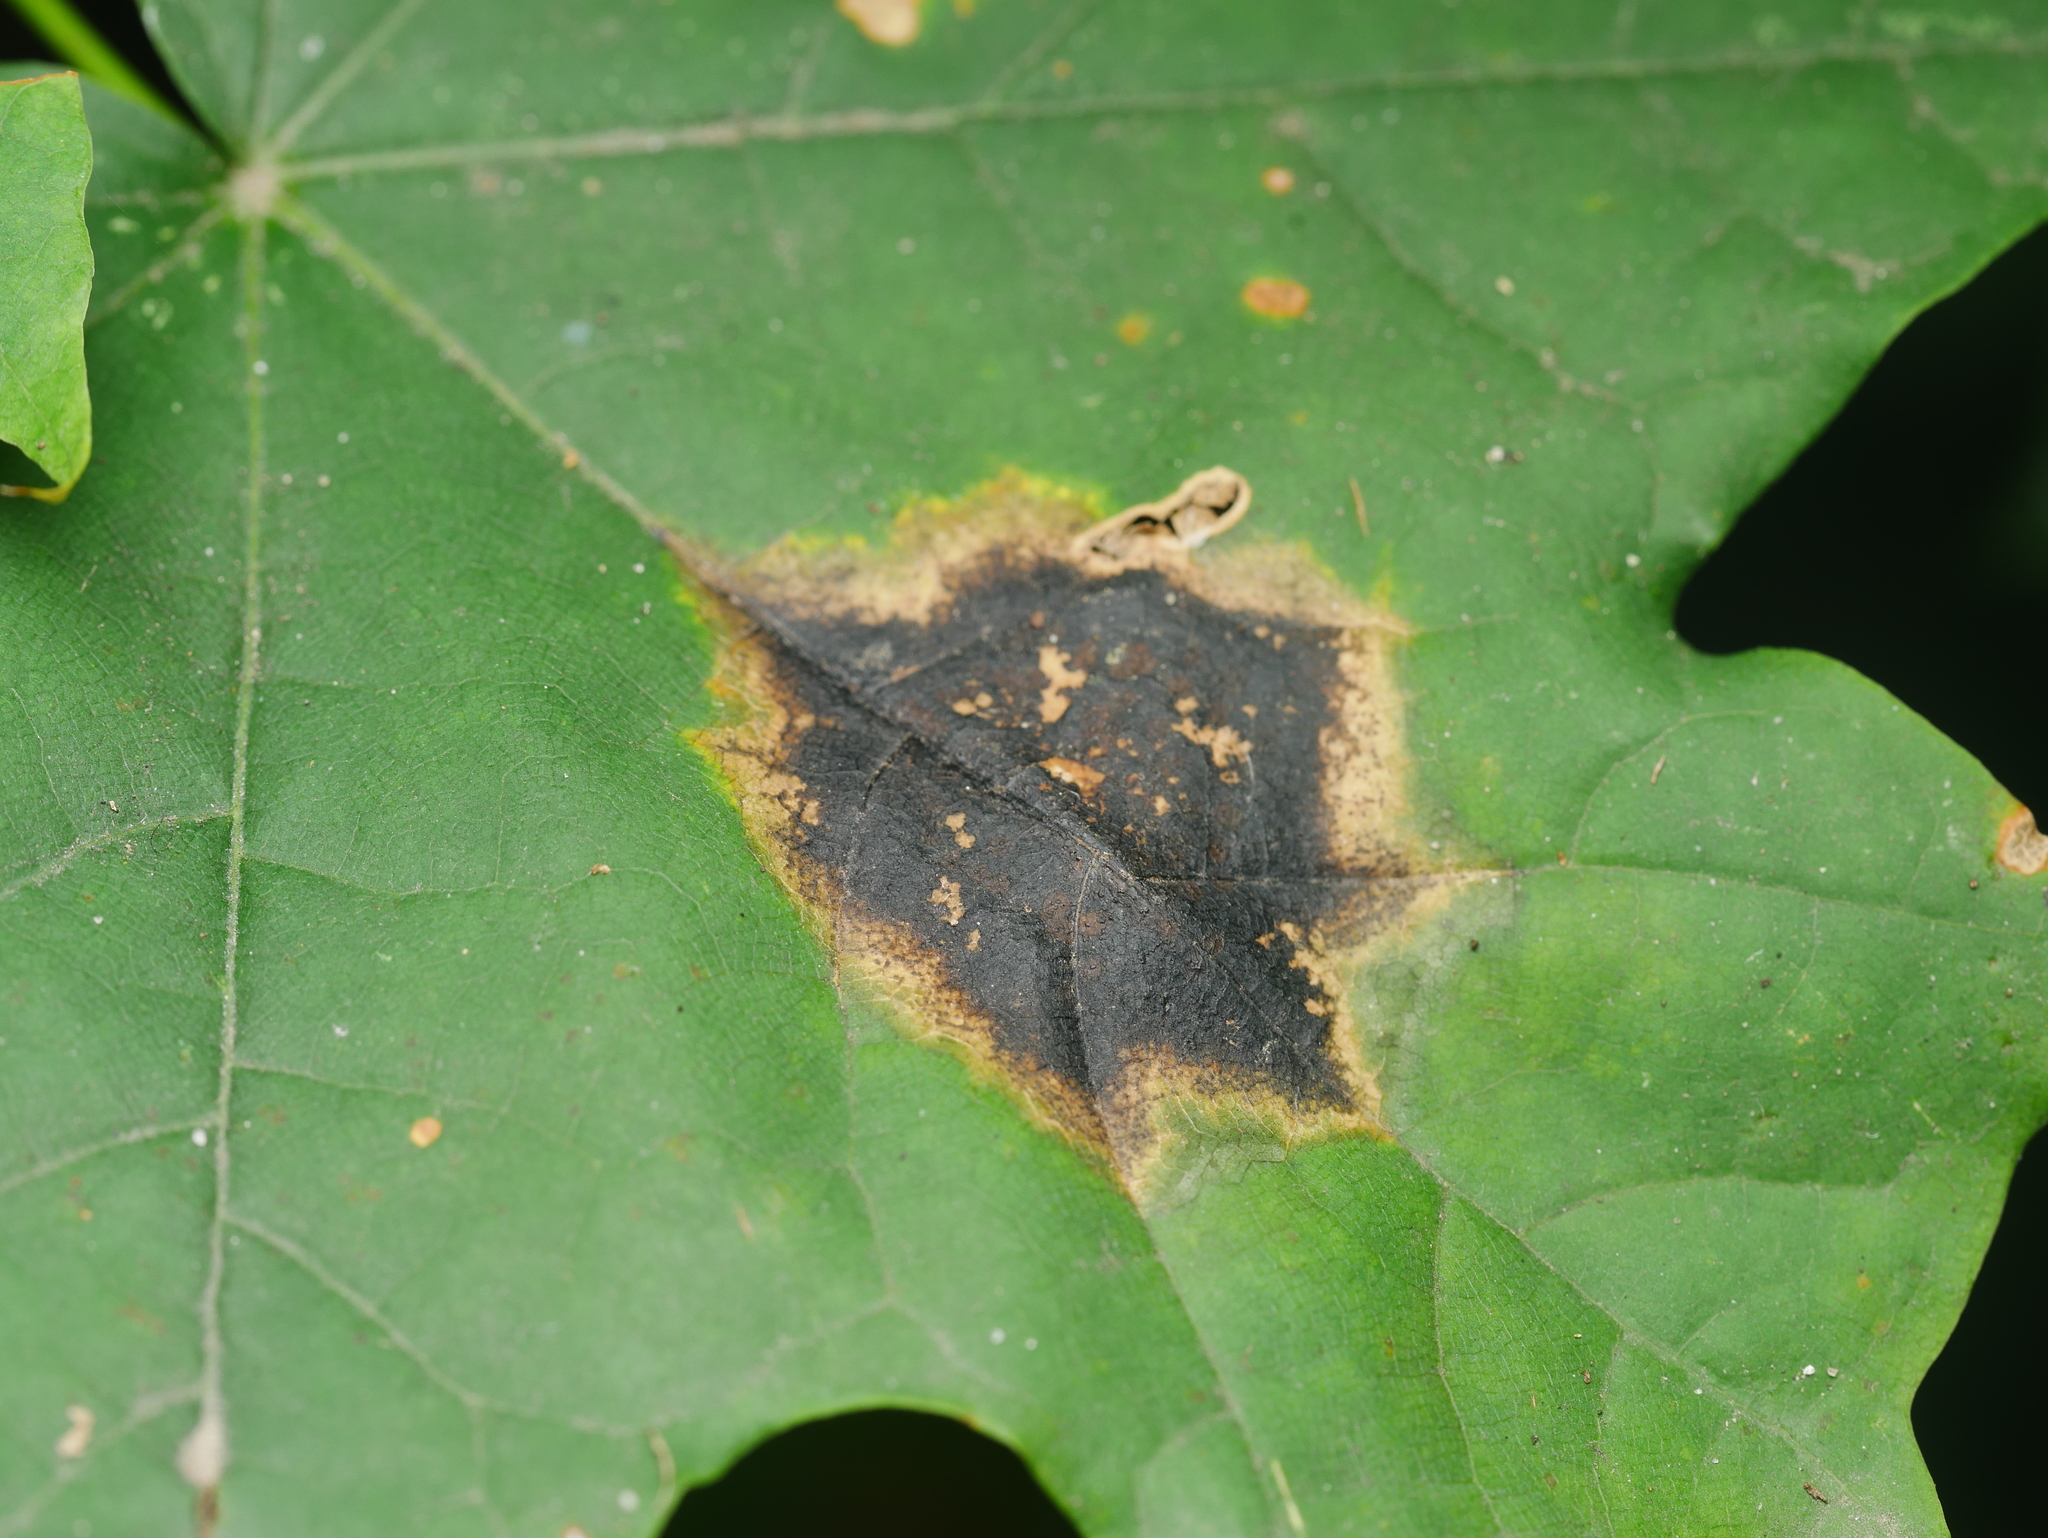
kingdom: Fungi
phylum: Ascomycota
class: Leotiomycetes
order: Rhytismatales
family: Rhytismataceae
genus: Rhytisma
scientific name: Rhytisma acerinum
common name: European tar spot
